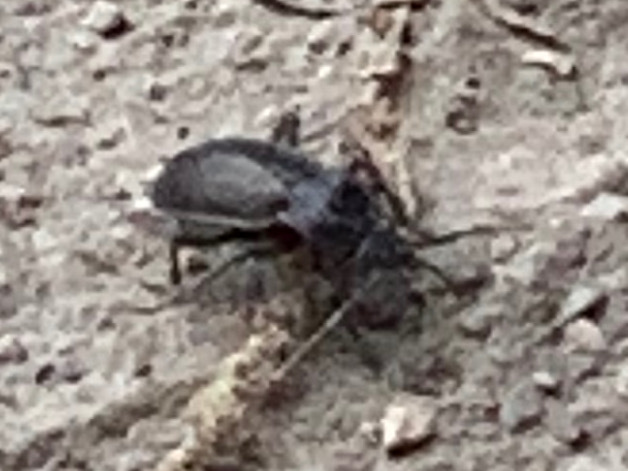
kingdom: Animalia
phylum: Arthropoda
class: Insecta
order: Coleoptera
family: Carabidae
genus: Carabus
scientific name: Carabus nemoralis
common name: European ground beetle
